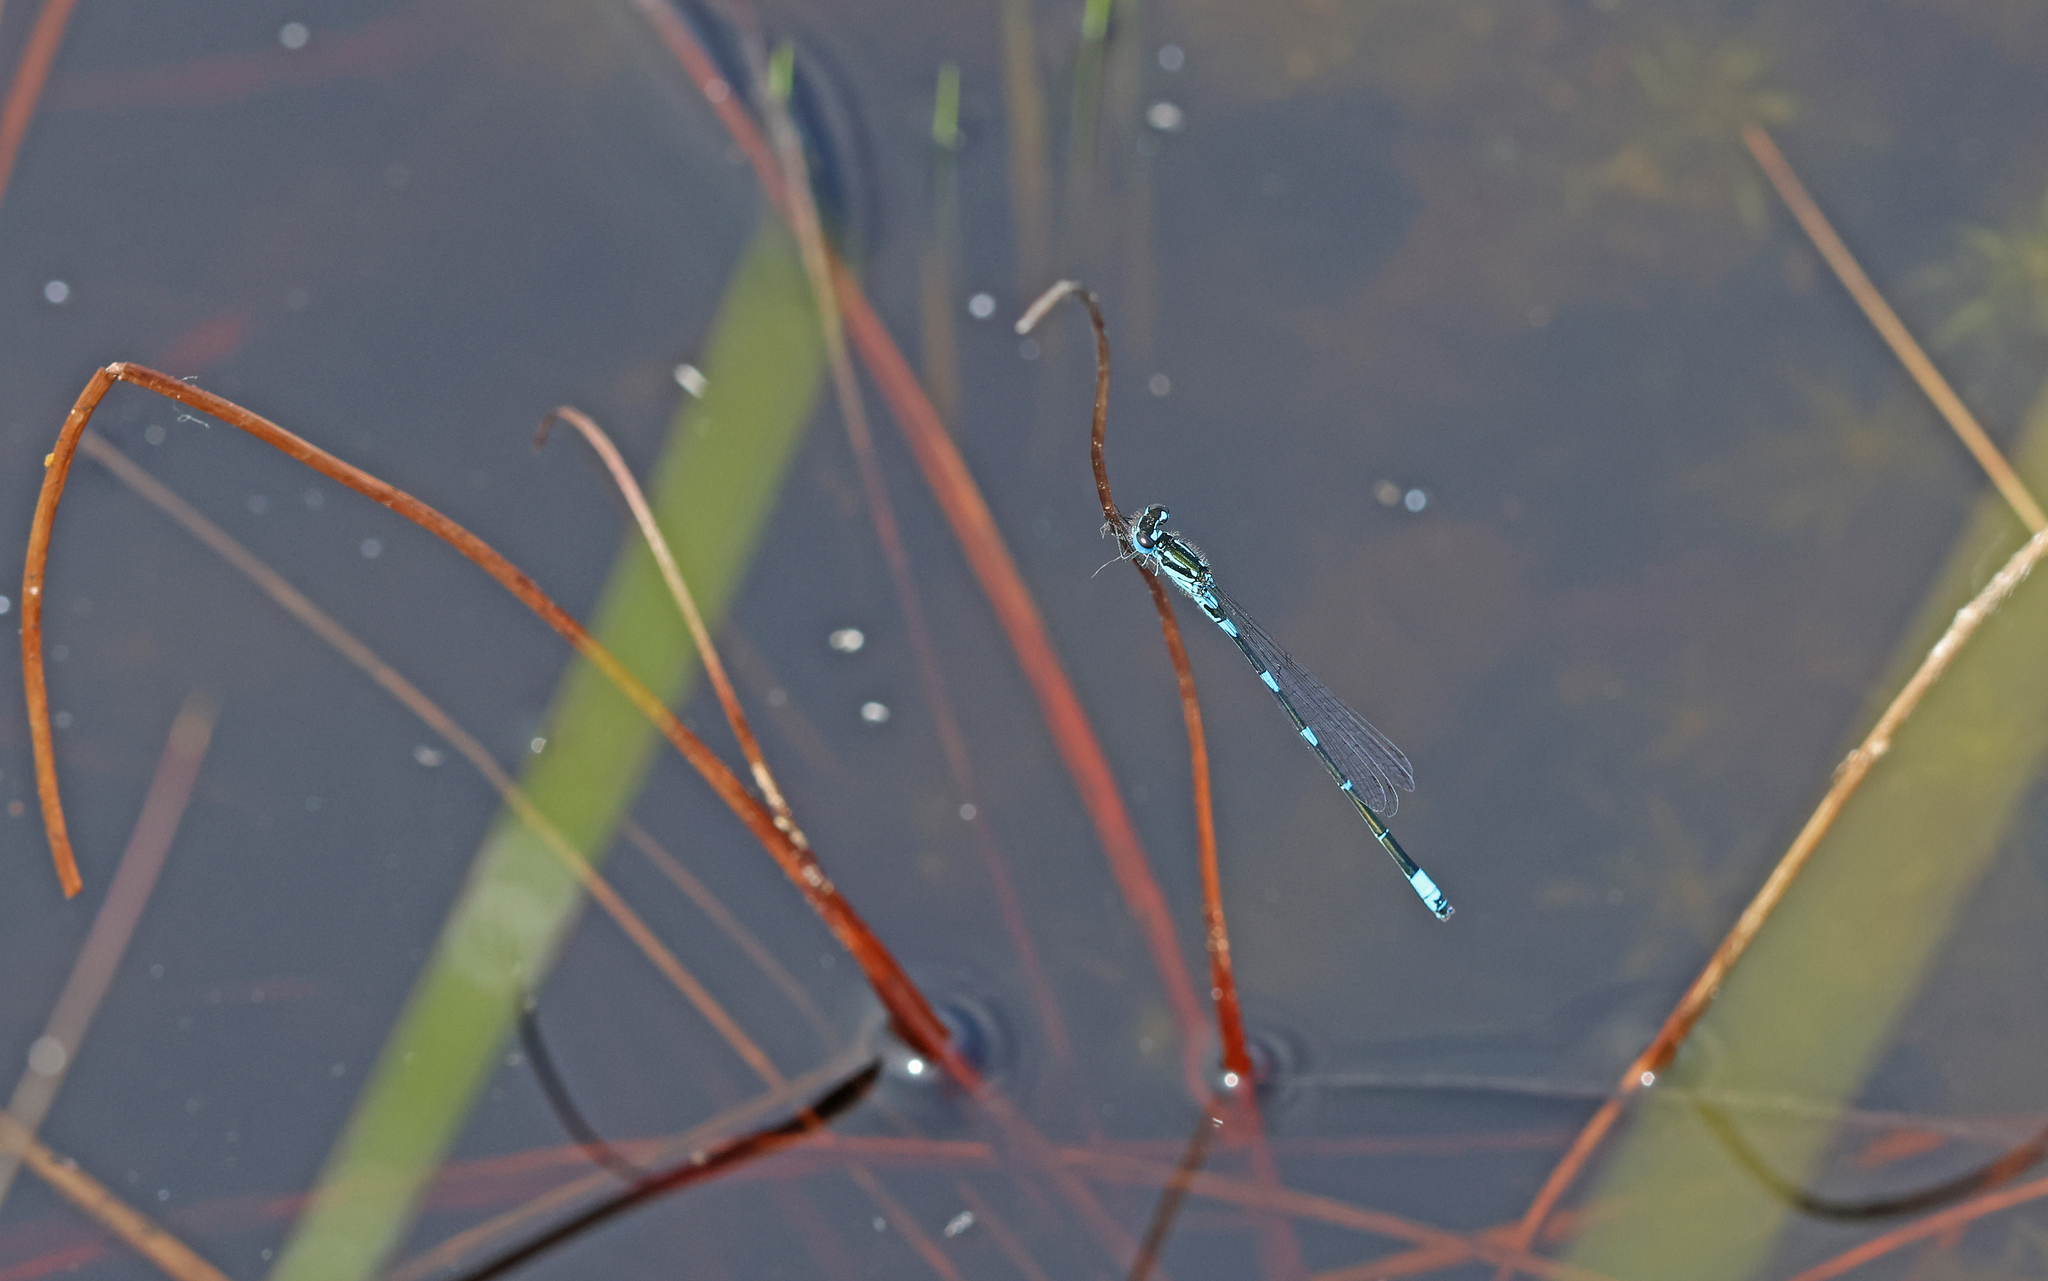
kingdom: Animalia
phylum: Arthropoda
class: Insecta
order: Odonata
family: Coenagrionidae
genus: Coenagrion
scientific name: Coenagrion pulchellum
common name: Variable bluet
